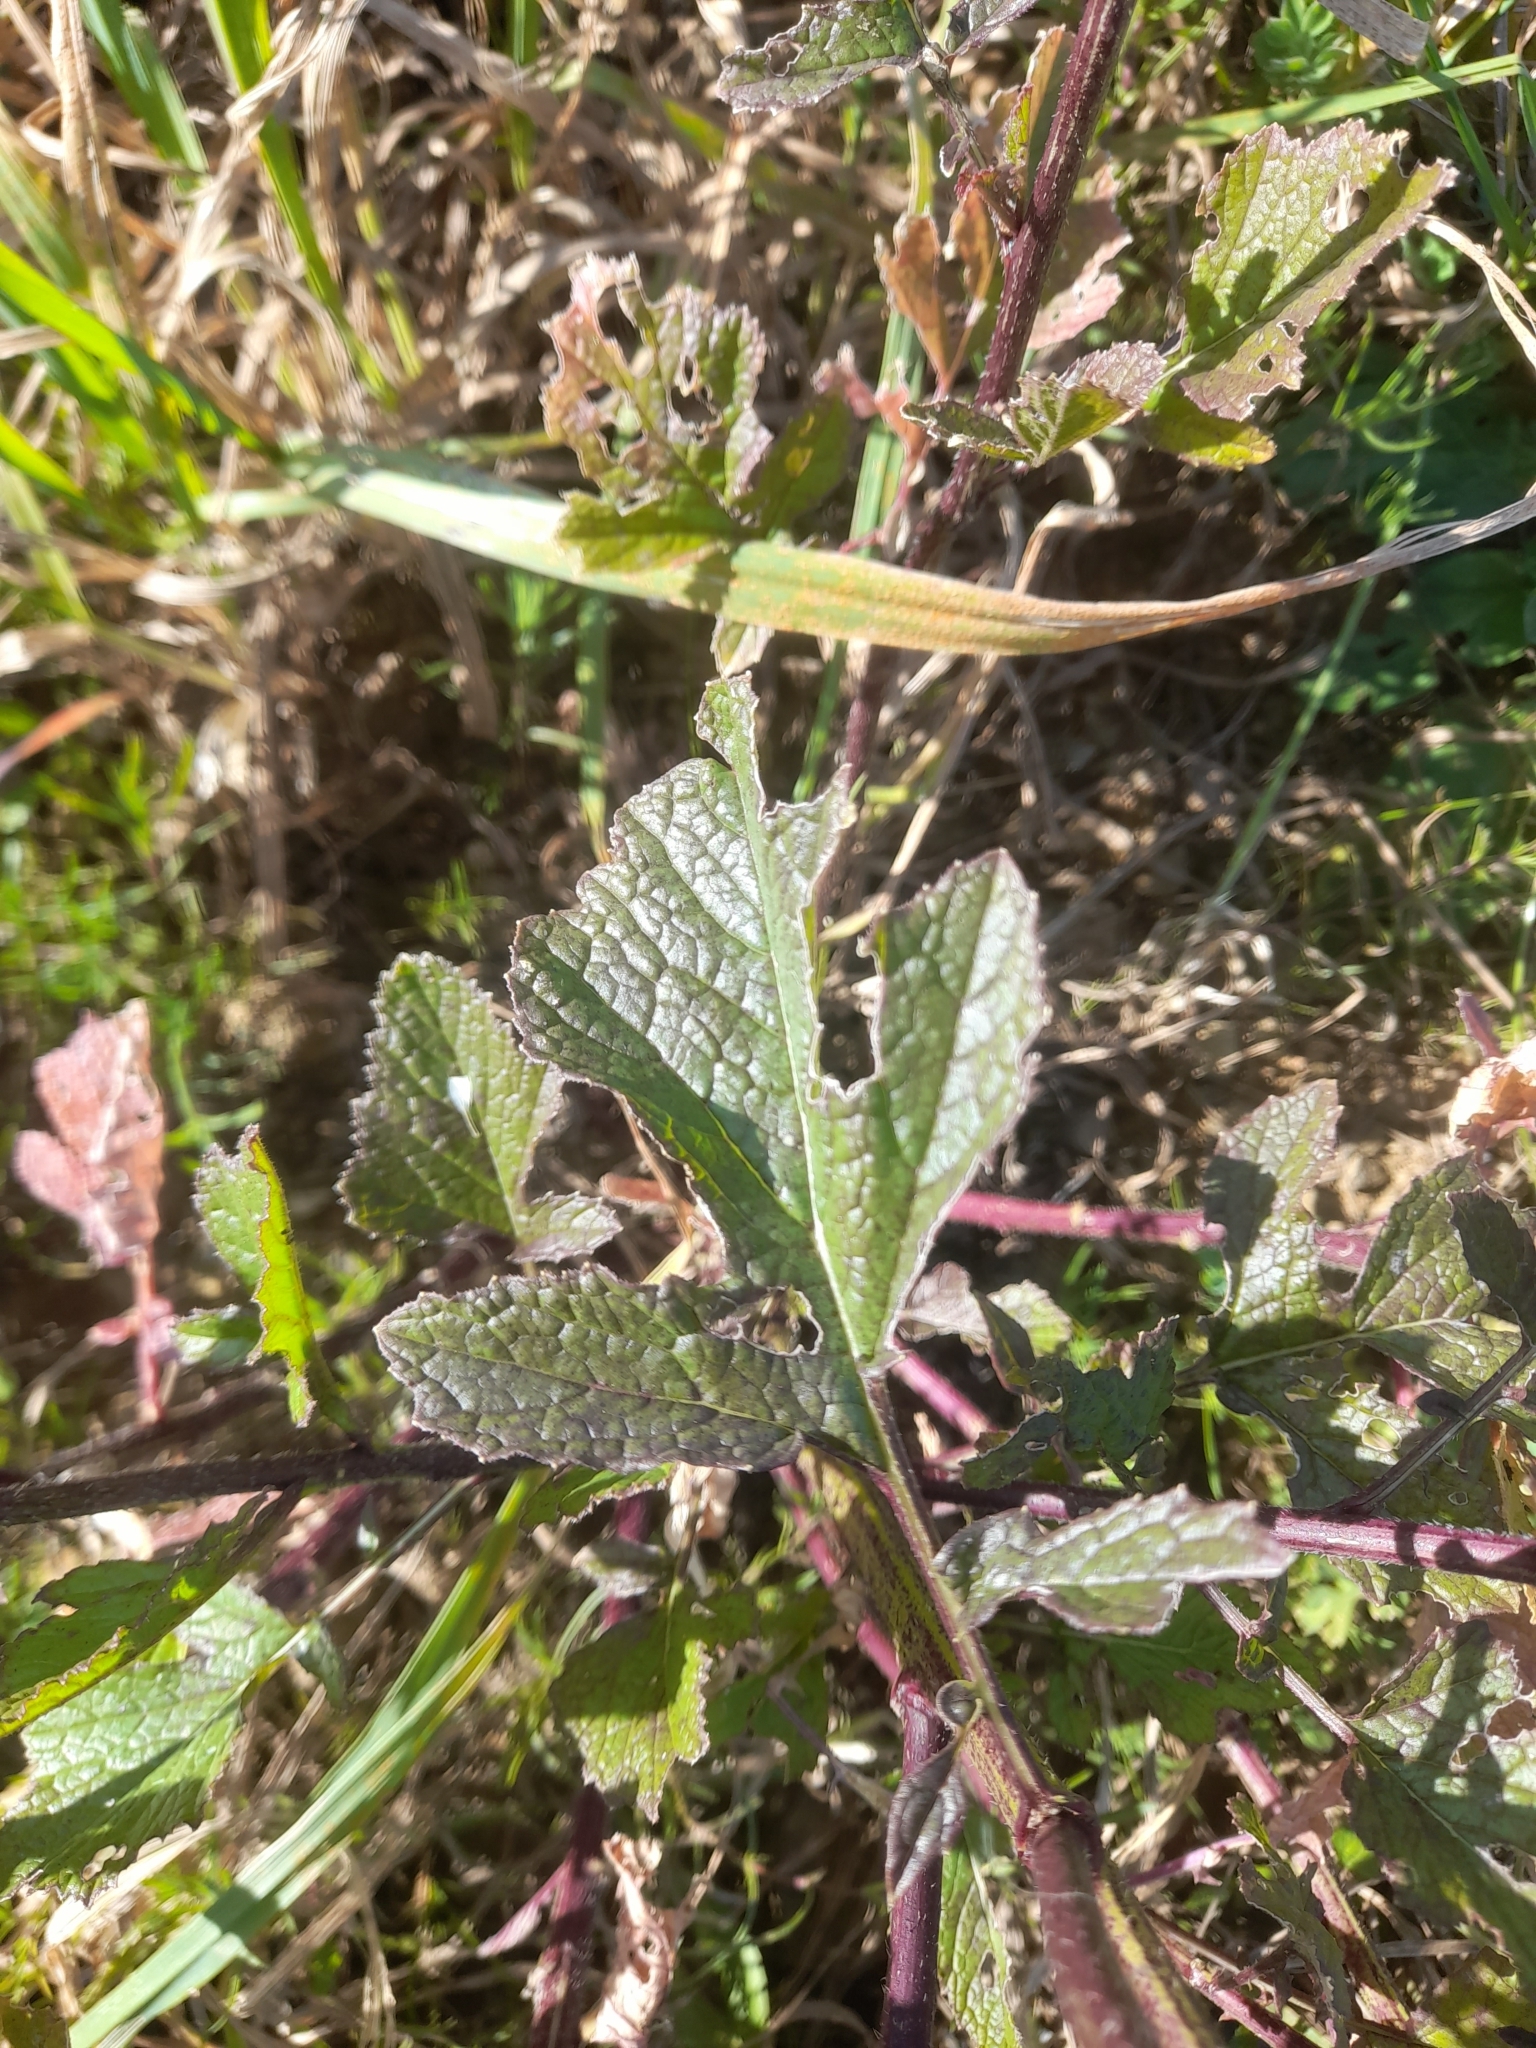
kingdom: Plantae
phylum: Tracheophyta
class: Magnoliopsida
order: Brassicales
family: Brassicaceae
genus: Sinapis
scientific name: Sinapis arvensis
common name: Charlock
